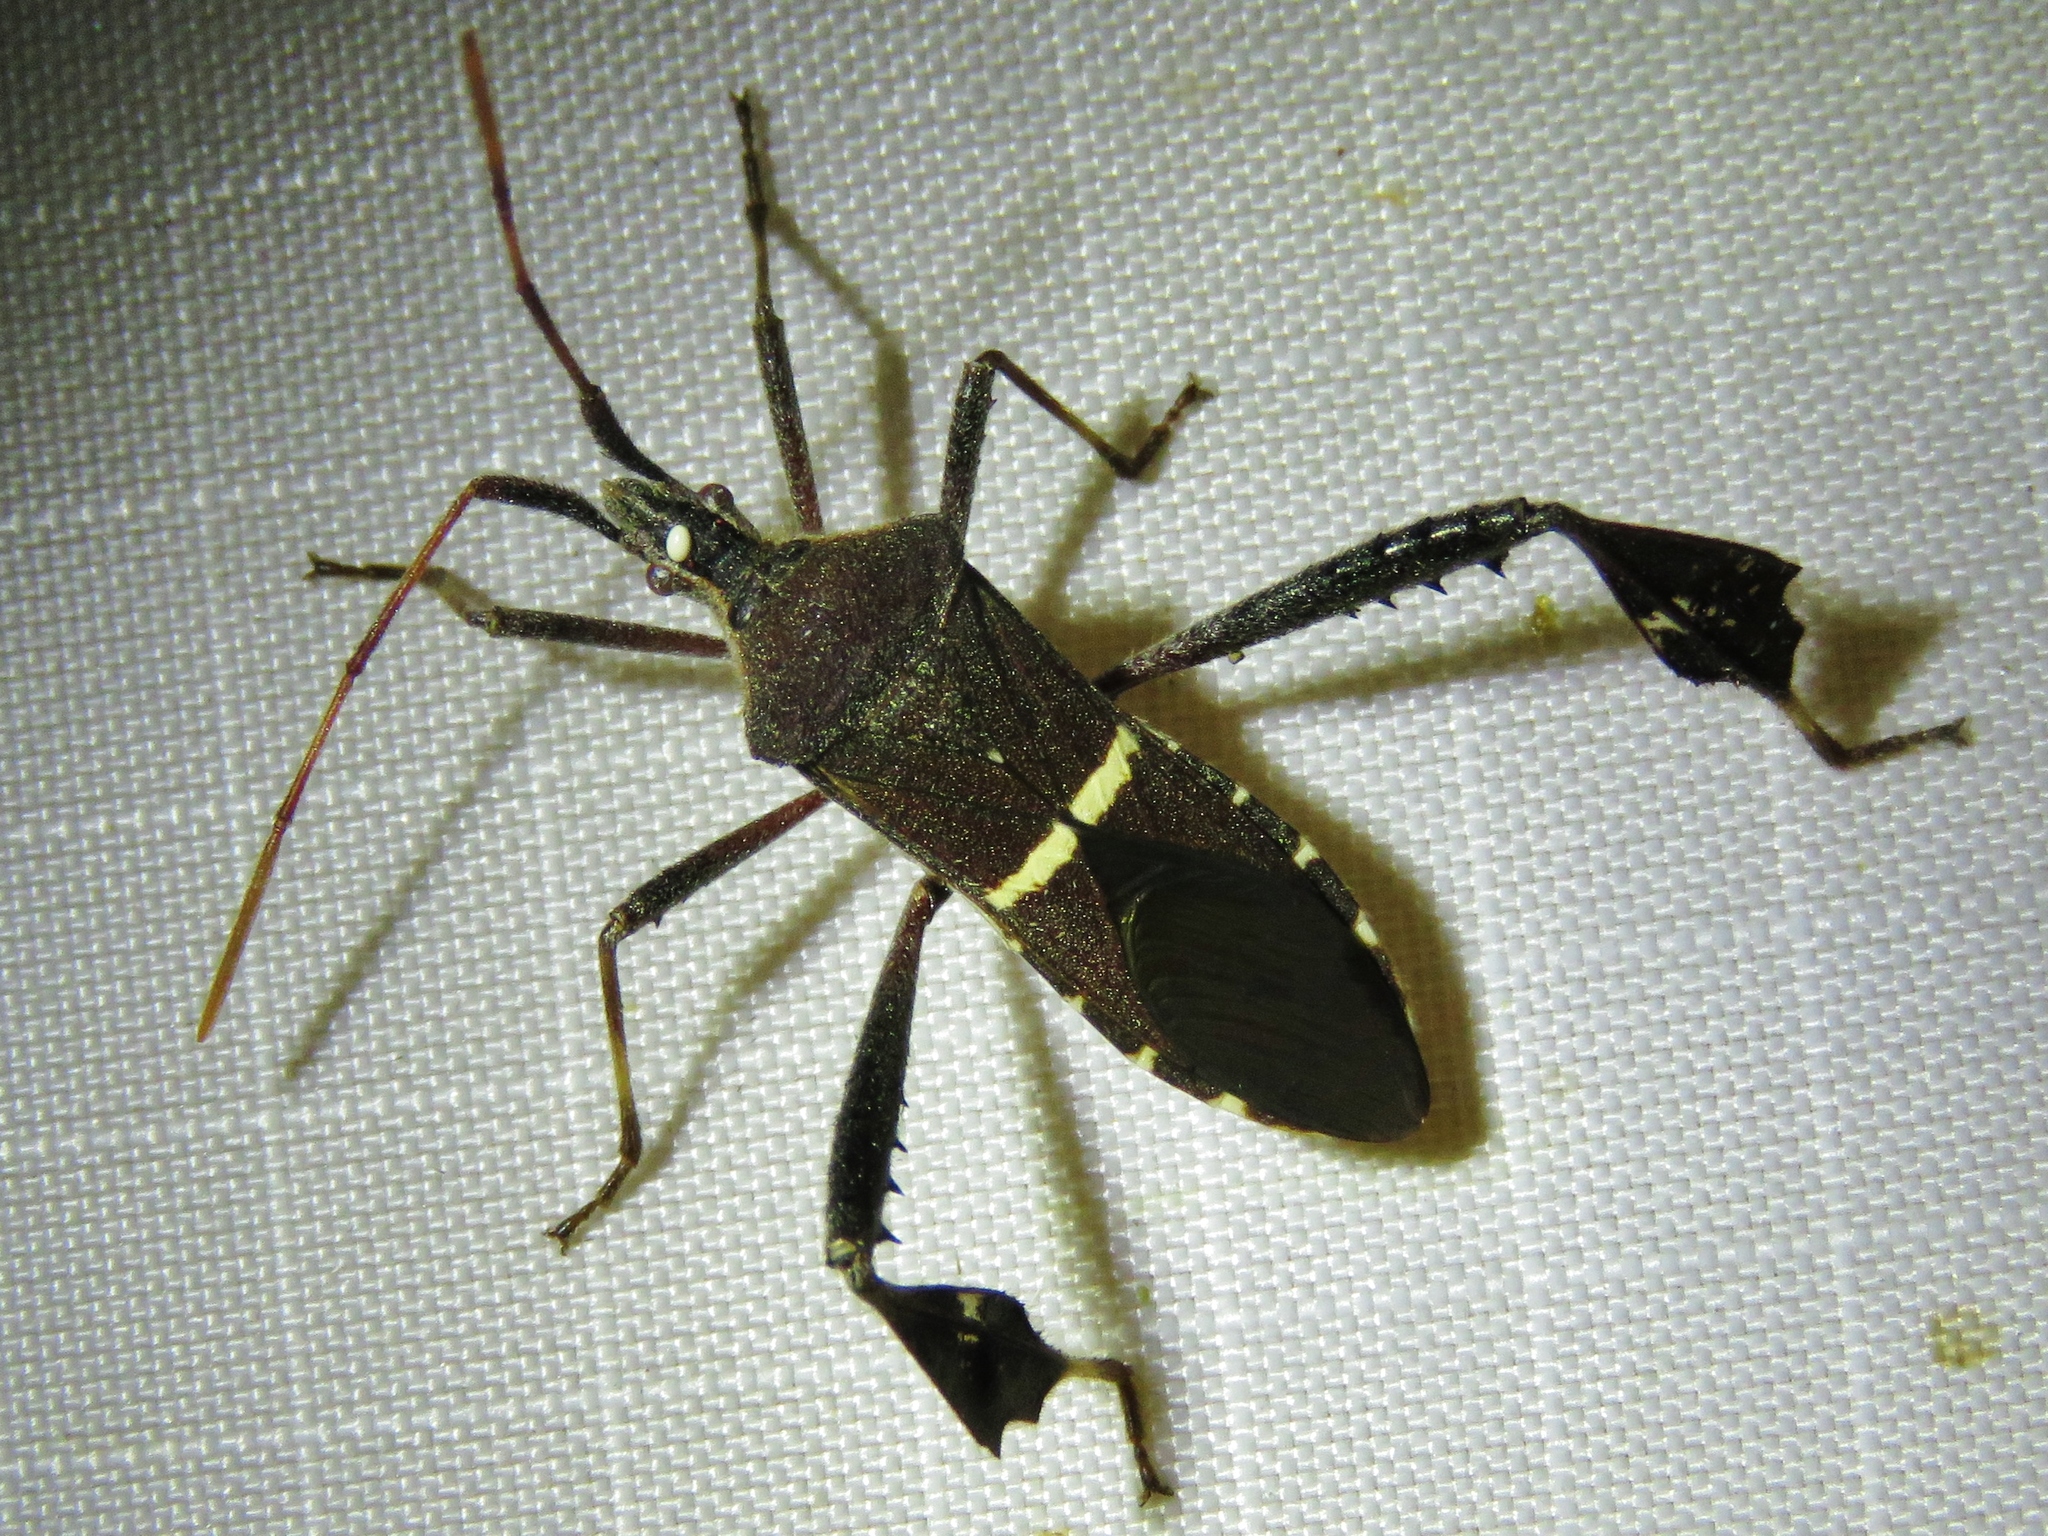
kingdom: Animalia
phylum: Arthropoda
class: Insecta
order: Hemiptera
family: Coreidae
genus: Leptoglossus
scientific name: Leptoglossus phyllopus
